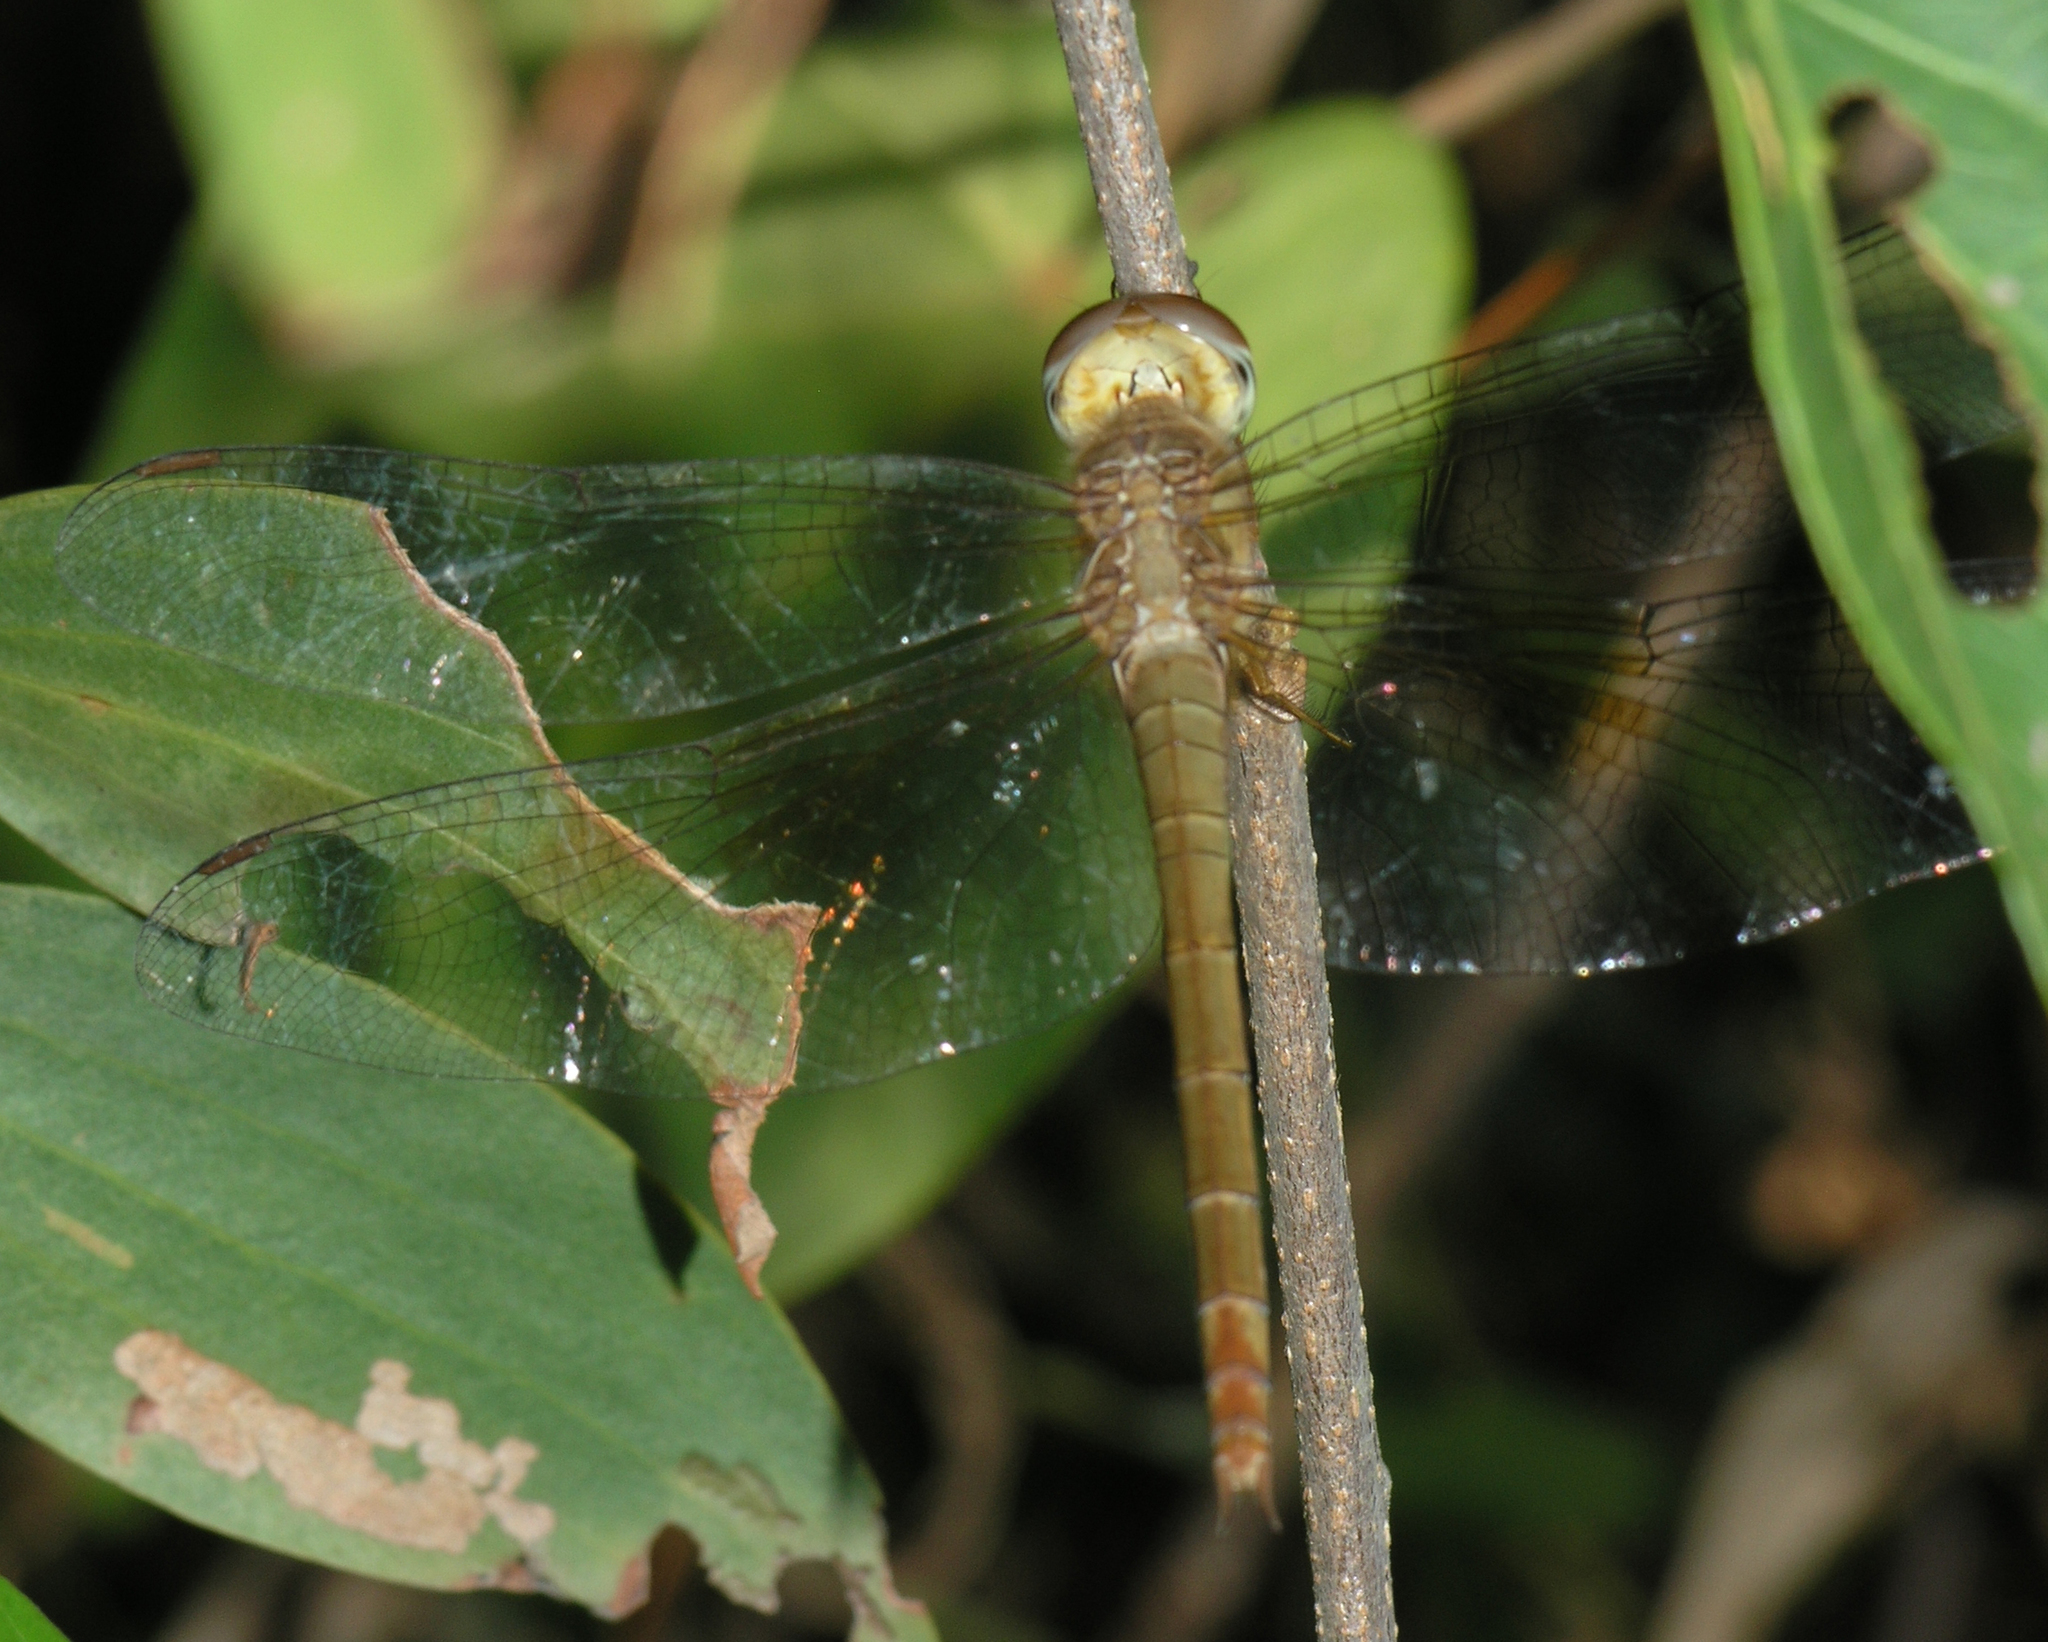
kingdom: Animalia
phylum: Arthropoda
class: Insecta
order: Odonata
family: Libellulidae
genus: Tholymis
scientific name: Tholymis tillarga
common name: Coral-tailed cloud wing
